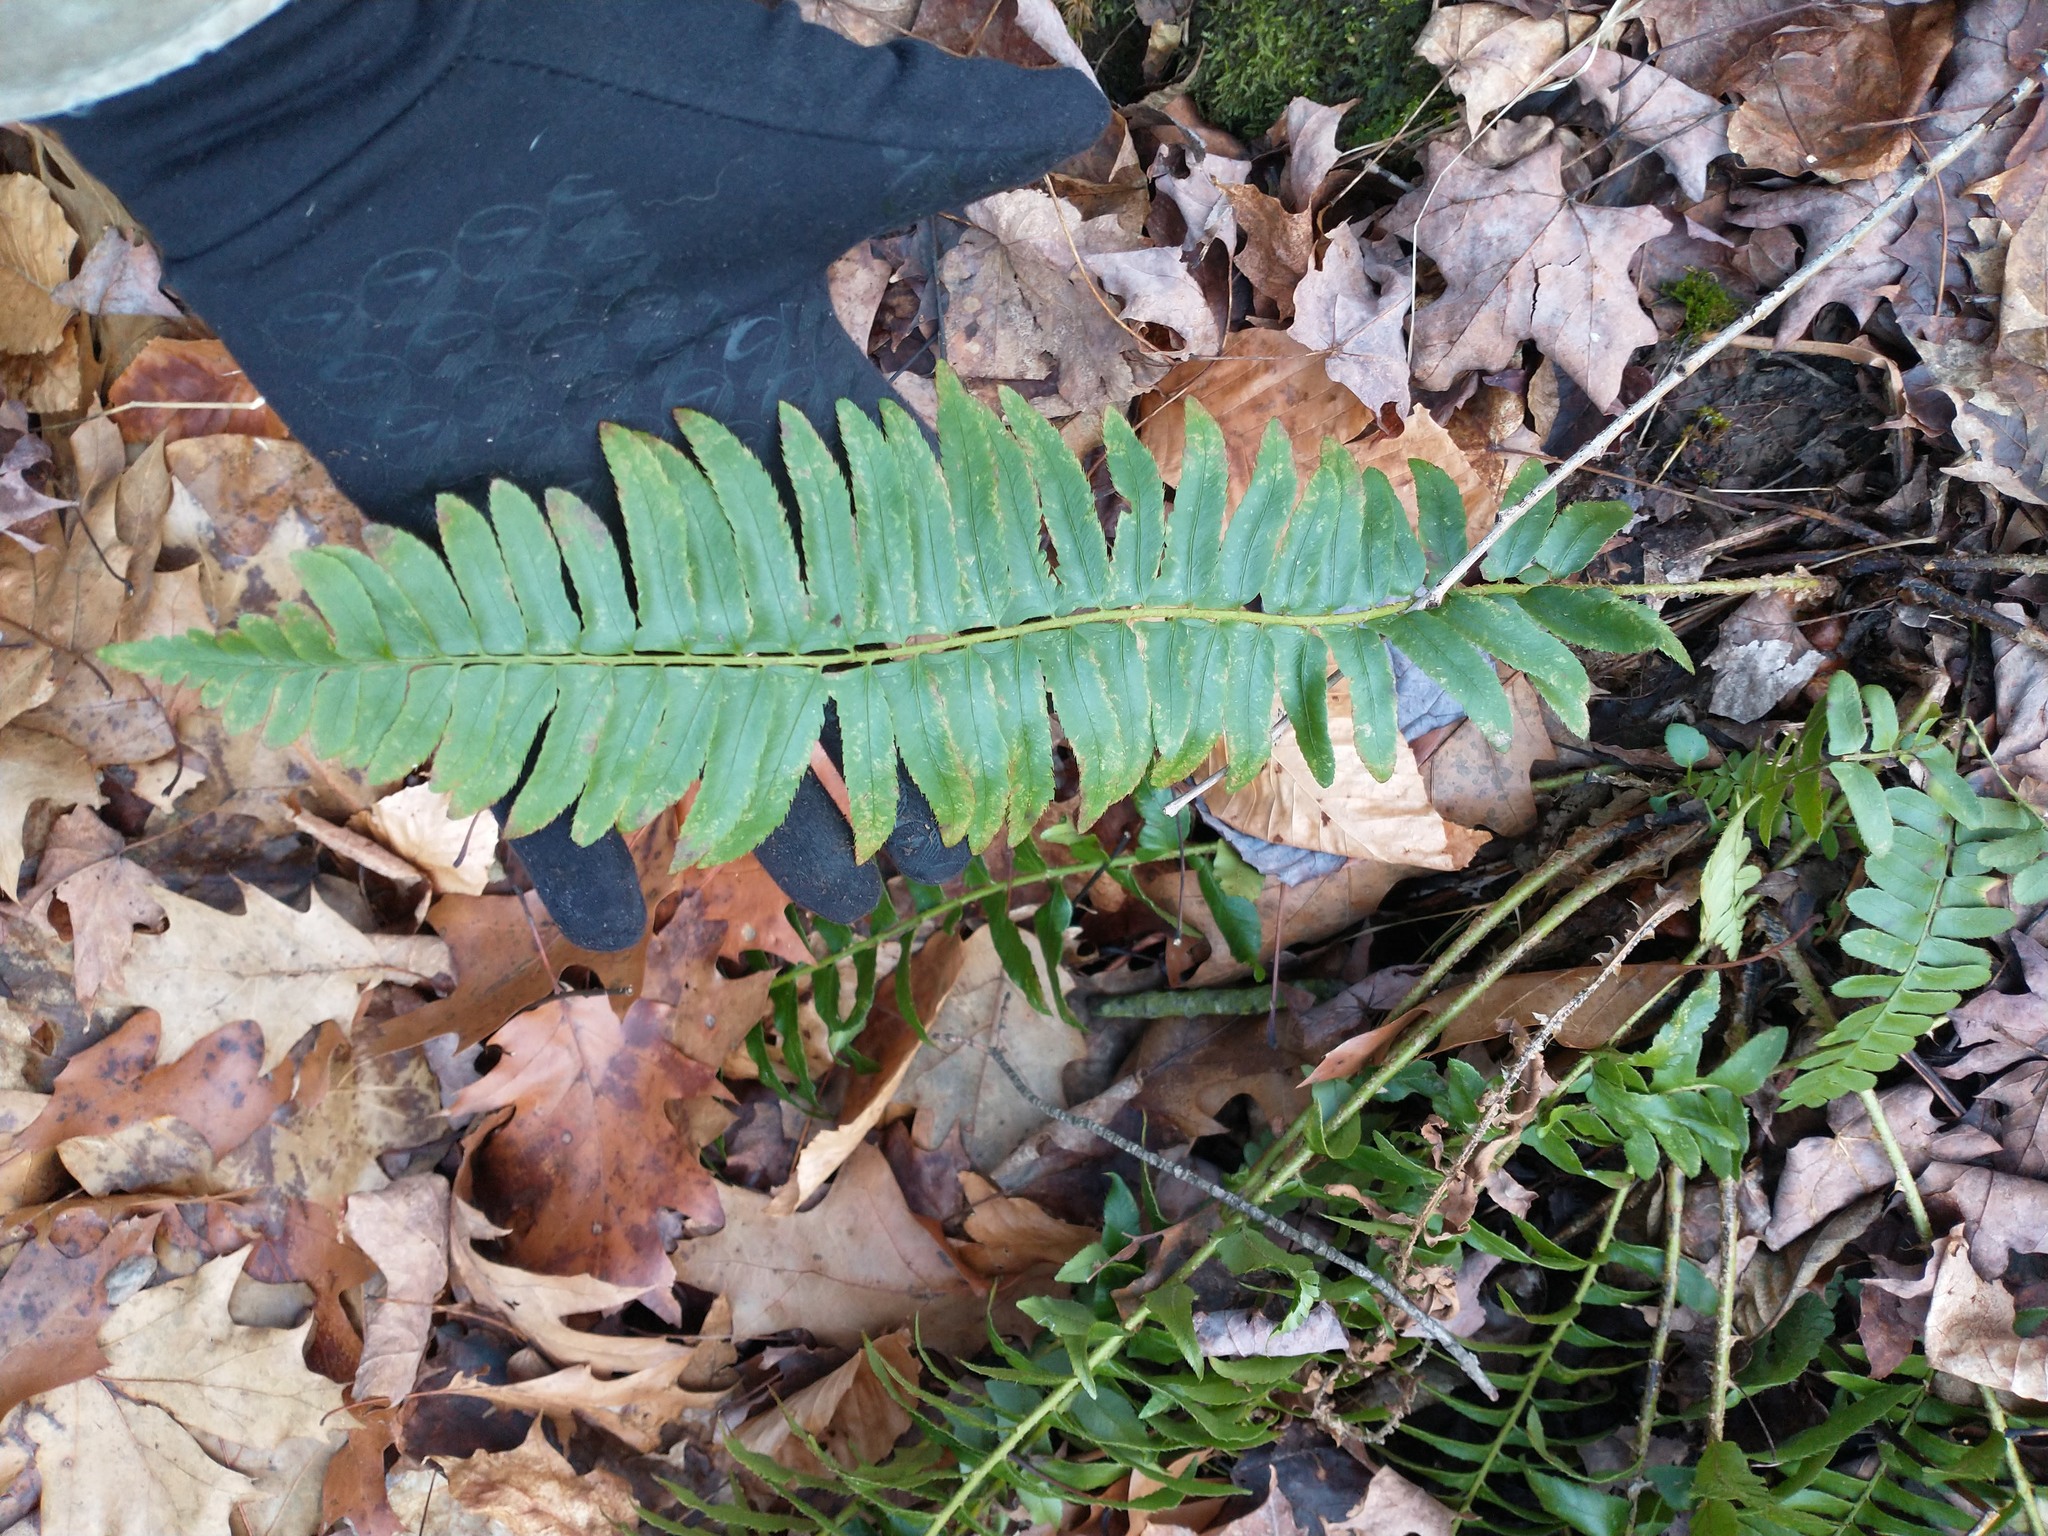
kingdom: Plantae
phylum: Tracheophyta
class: Polypodiopsida
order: Polypodiales
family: Dryopteridaceae
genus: Polystichum
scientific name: Polystichum acrostichoides
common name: Christmas fern
